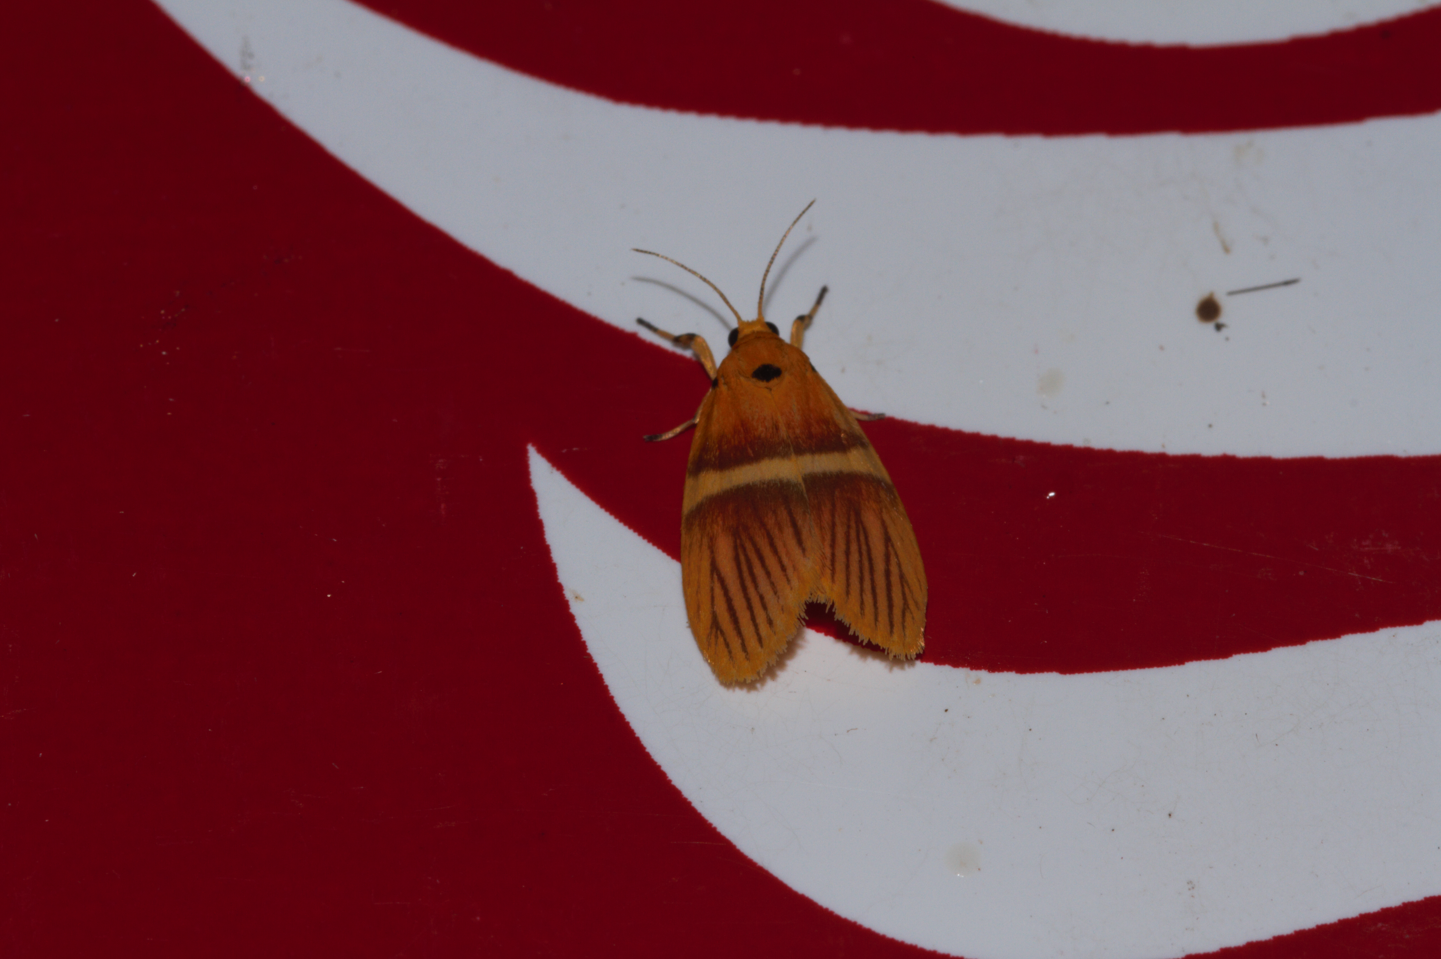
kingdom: Animalia
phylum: Arthropoda
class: Insecta
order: Lepidoptera
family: Erebidae
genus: Euthyone
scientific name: Euthyone perbella
